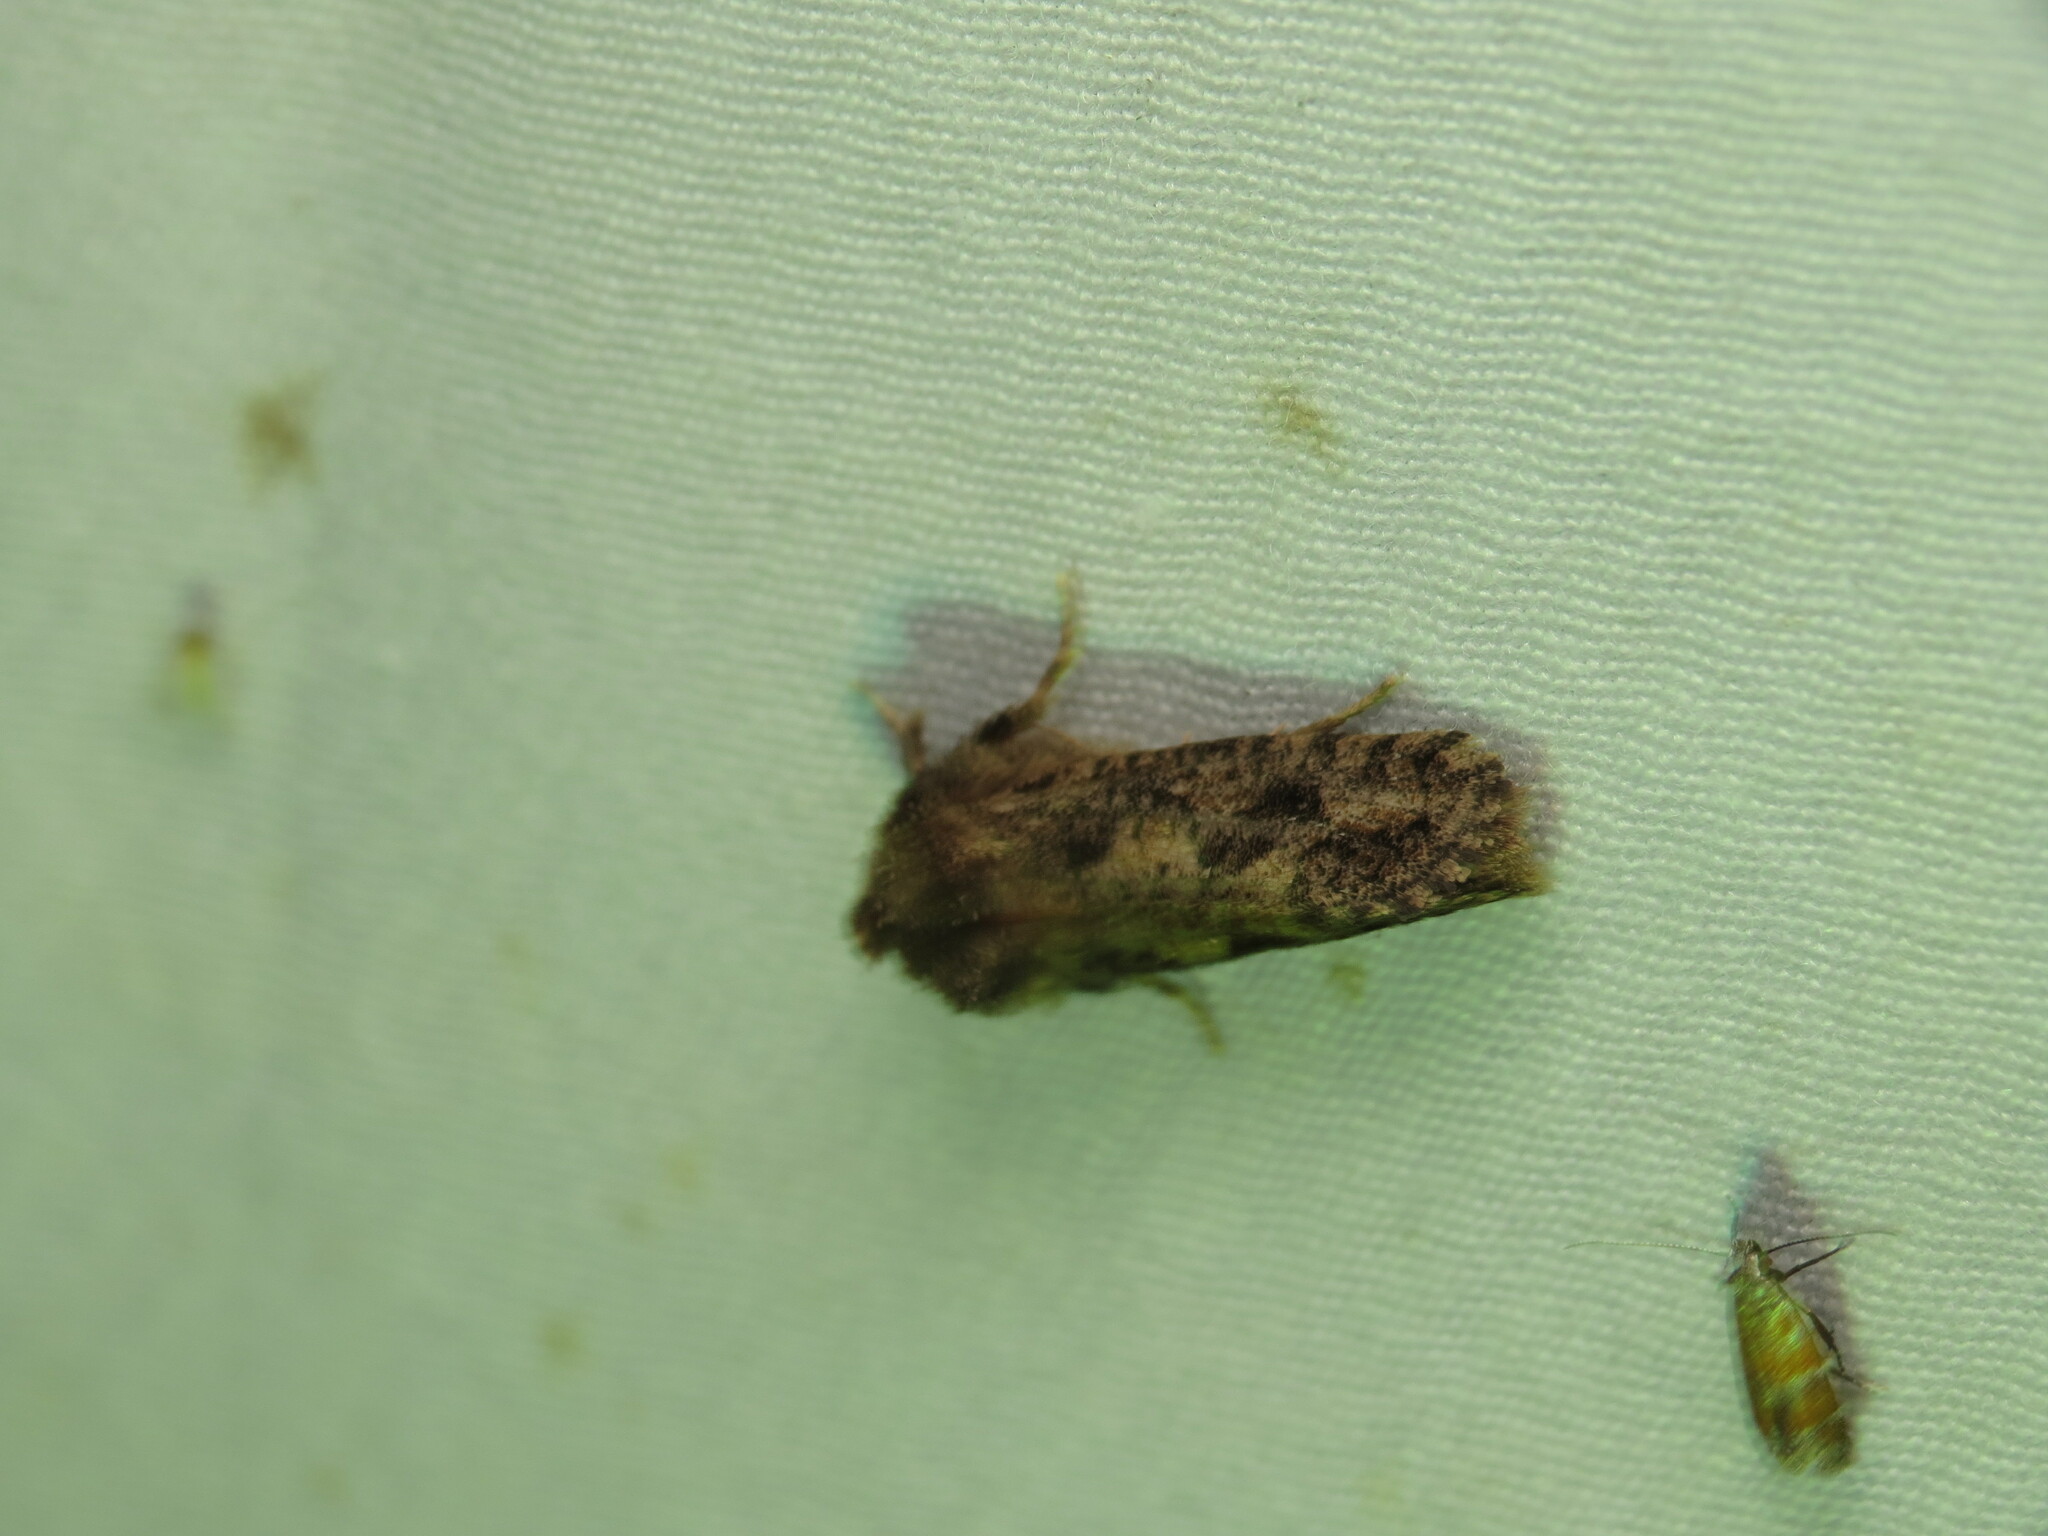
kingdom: Animalia
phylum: Arthropoda
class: Insecta
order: Lepidoptera
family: Tineidae
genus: Acrolophus
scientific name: Acrolophus arcanella
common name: Arcane grass tubeworm moth
